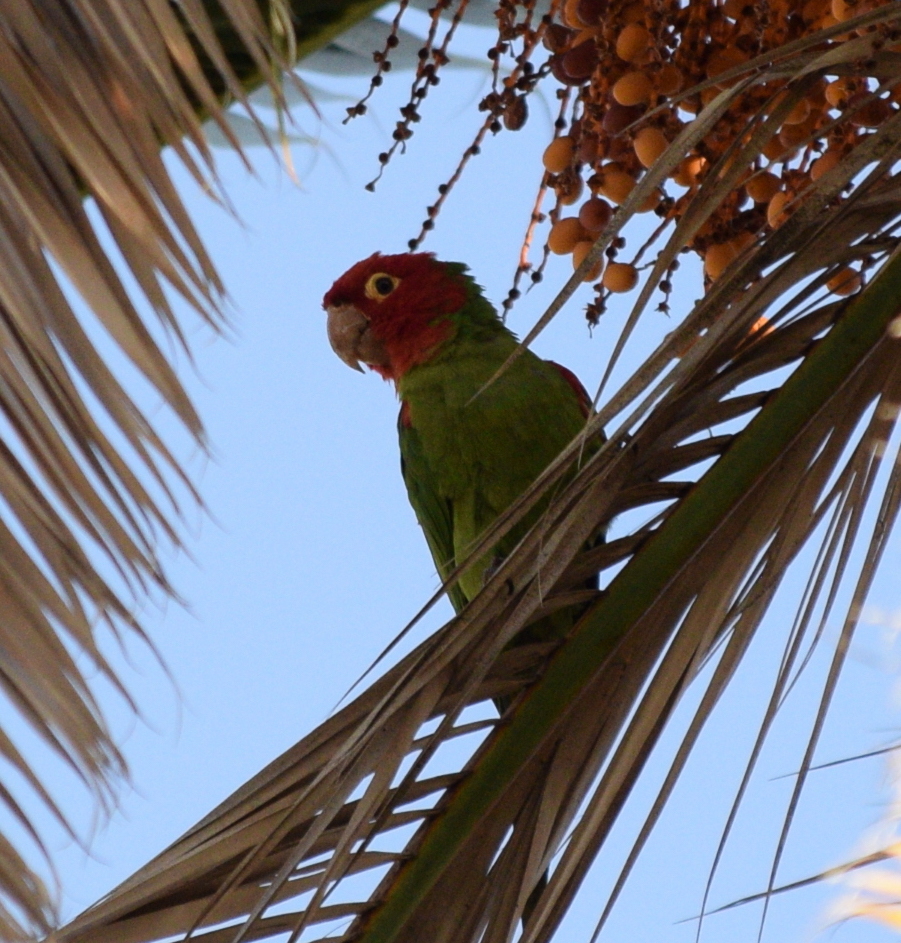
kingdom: Animalia
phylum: Chordata
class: Aves
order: Psittaciformes
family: Psittacidae
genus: Aratinga
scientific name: Aratinga erythrogenys
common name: Red-masked parakeet
